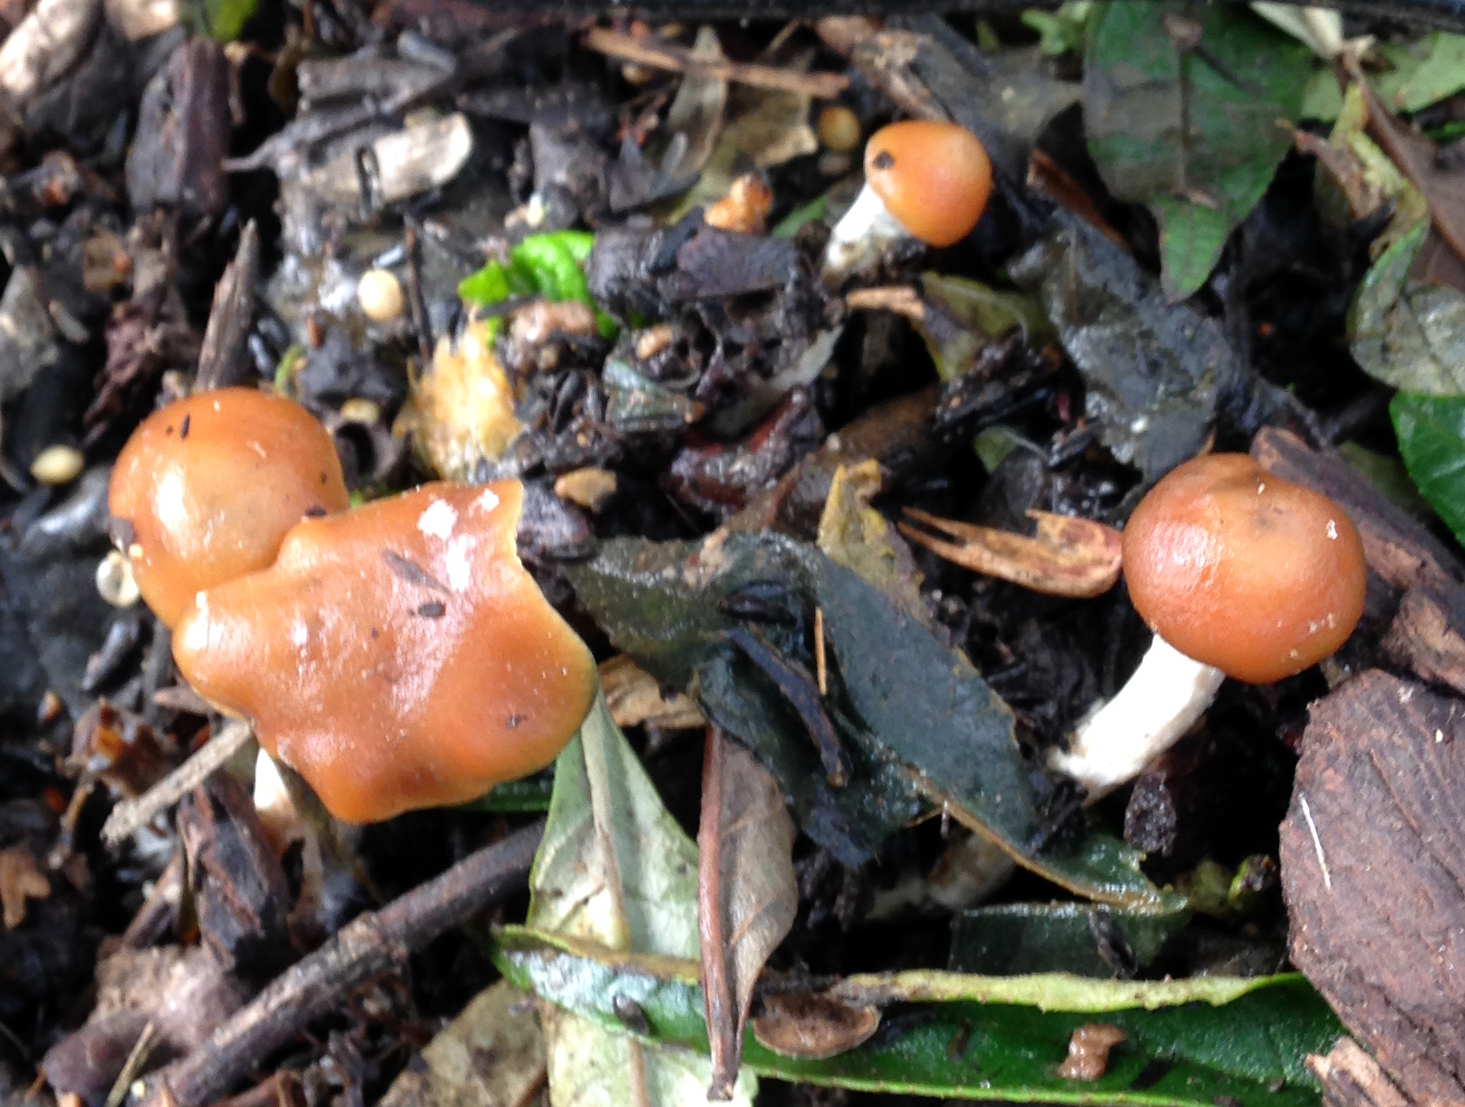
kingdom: Fungi
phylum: Basidiomycota
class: Agaricomycetes
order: Agaricales
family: Hymenogastraceae
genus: Psilocybe
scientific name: Psilocybe cyanescens
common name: Blueleg brownie
